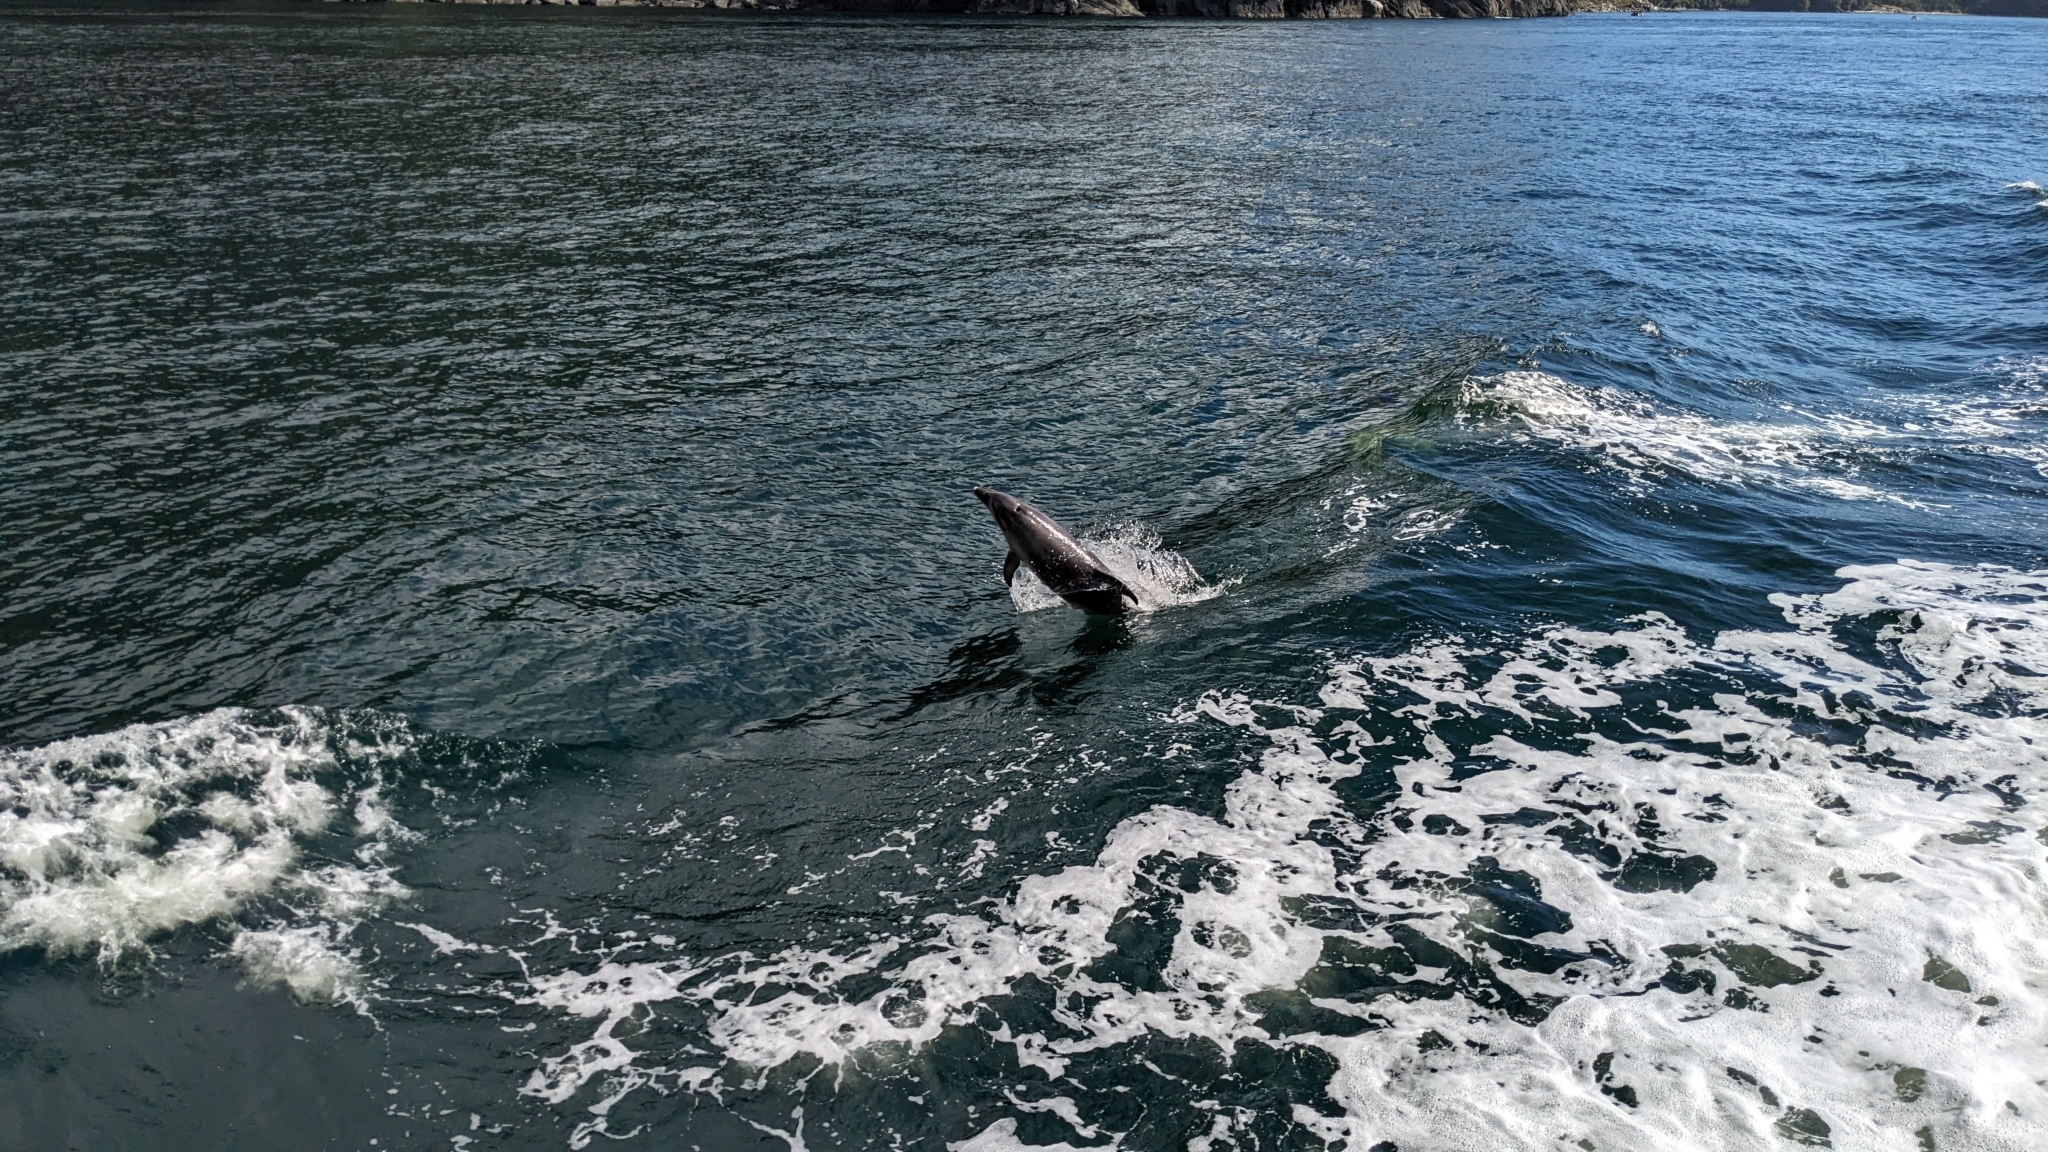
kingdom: Animalia
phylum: Chordata
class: Mammalia
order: Cetacea
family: Delphinidae
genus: Tursiops
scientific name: Tursiops truncatus
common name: Bottlenose dolphin
